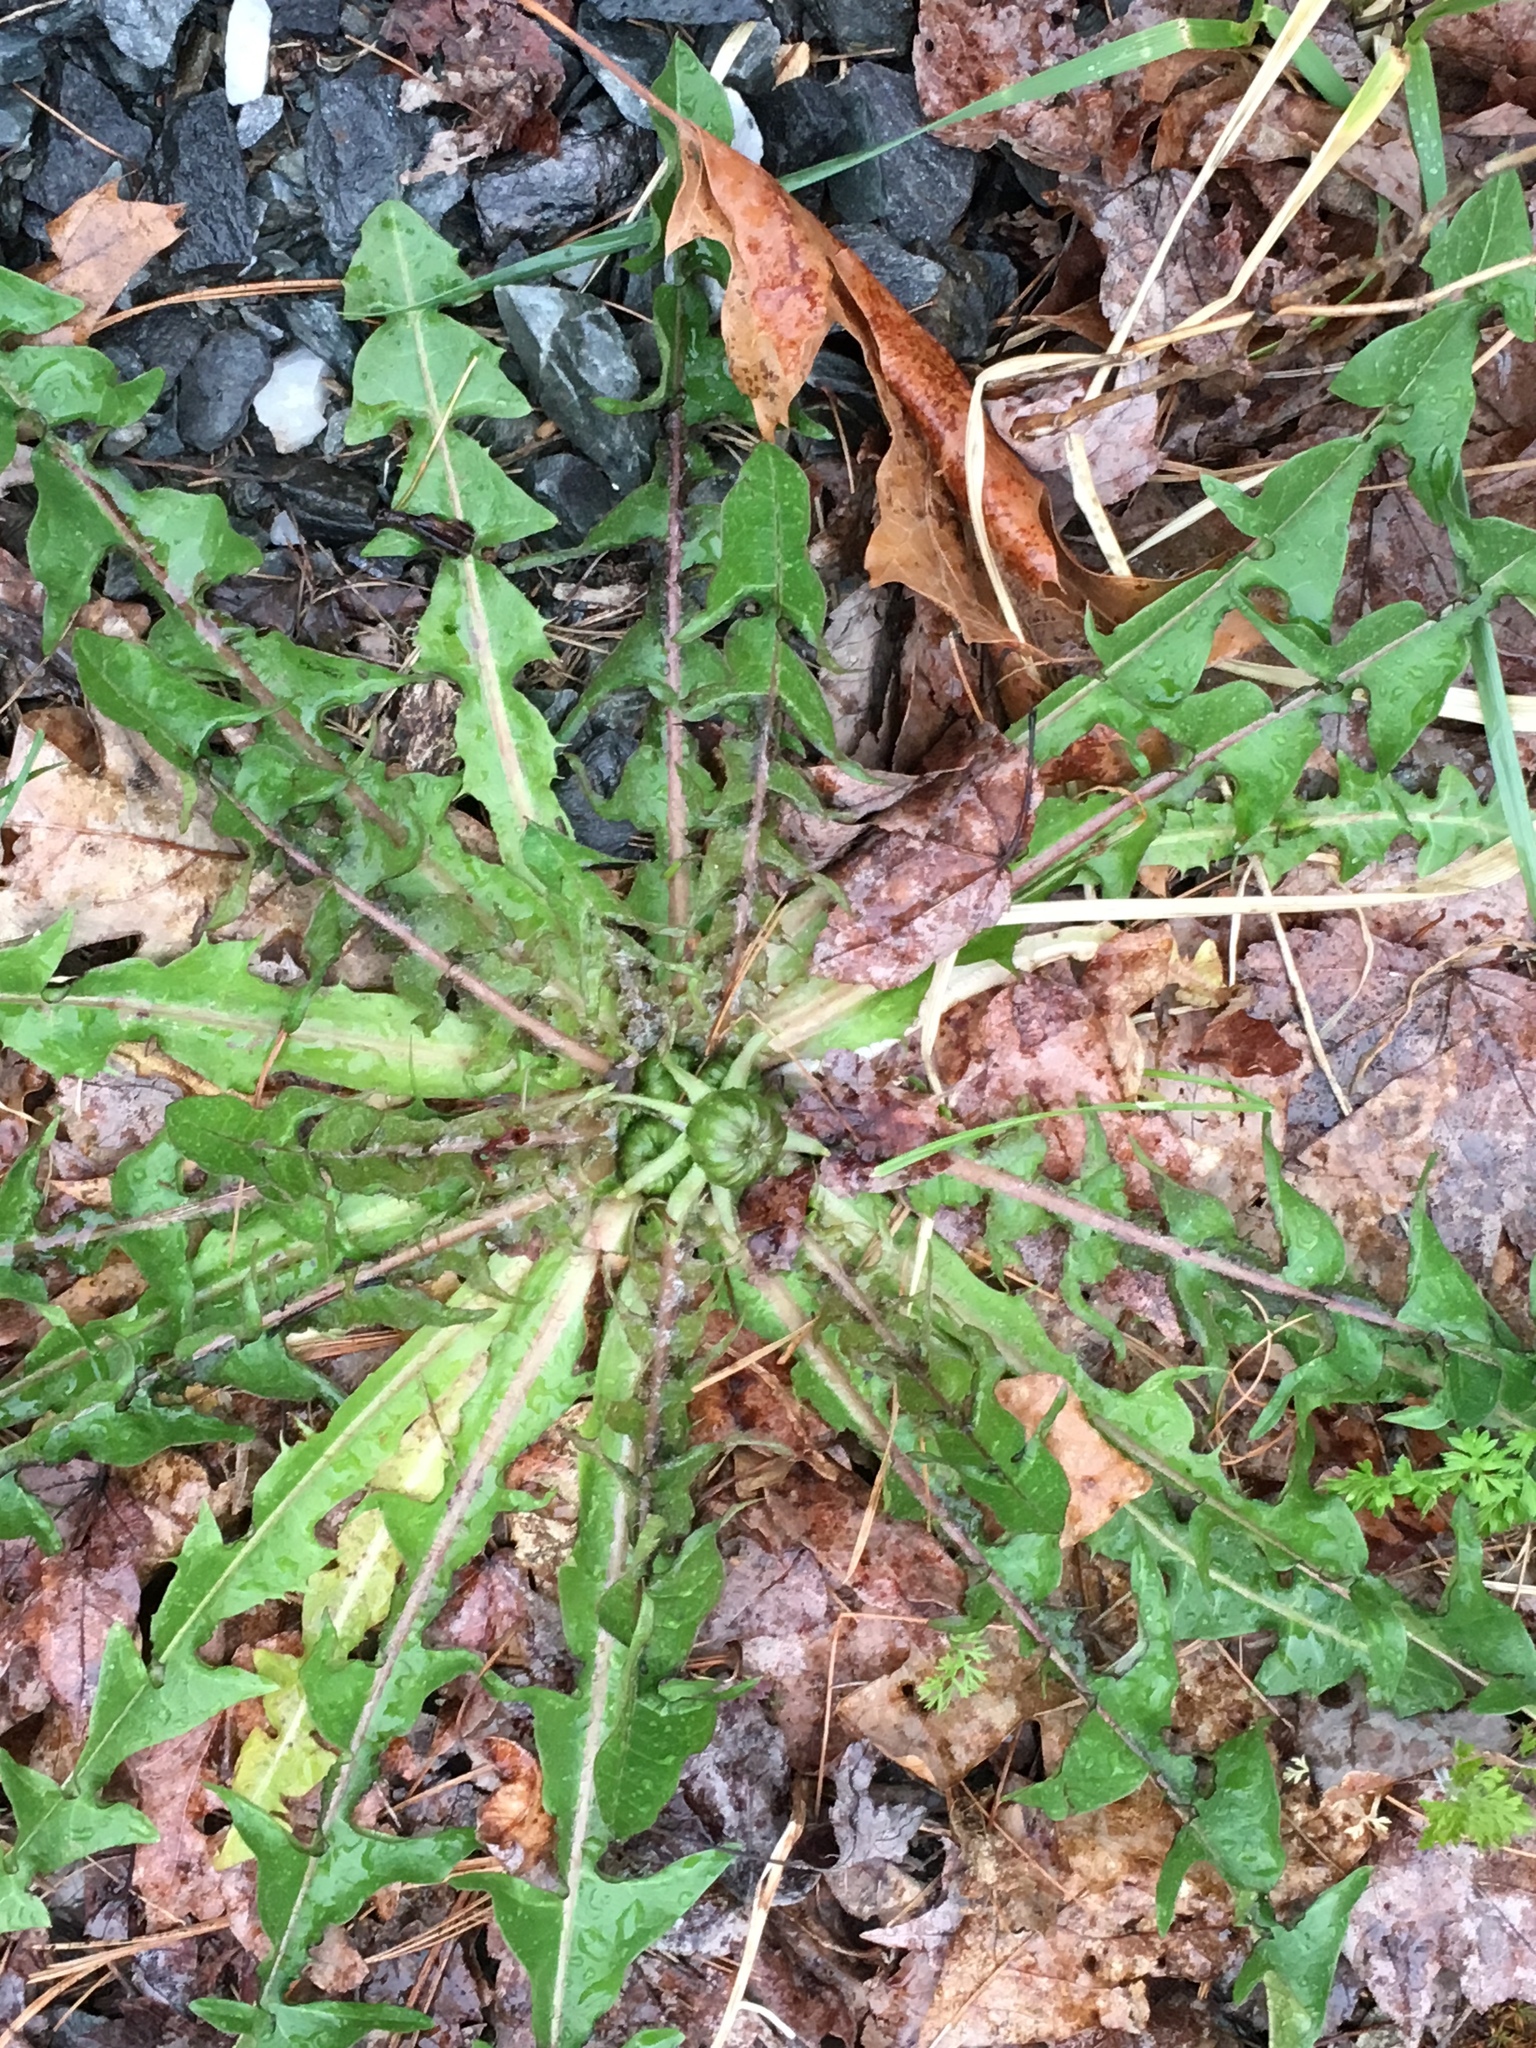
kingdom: Plantae
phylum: Tracheophyta
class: Magnoliopsida
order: Asterales
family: Asteraceae
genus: Taraxacum
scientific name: Taraxacum officinale
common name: Common dandelion
